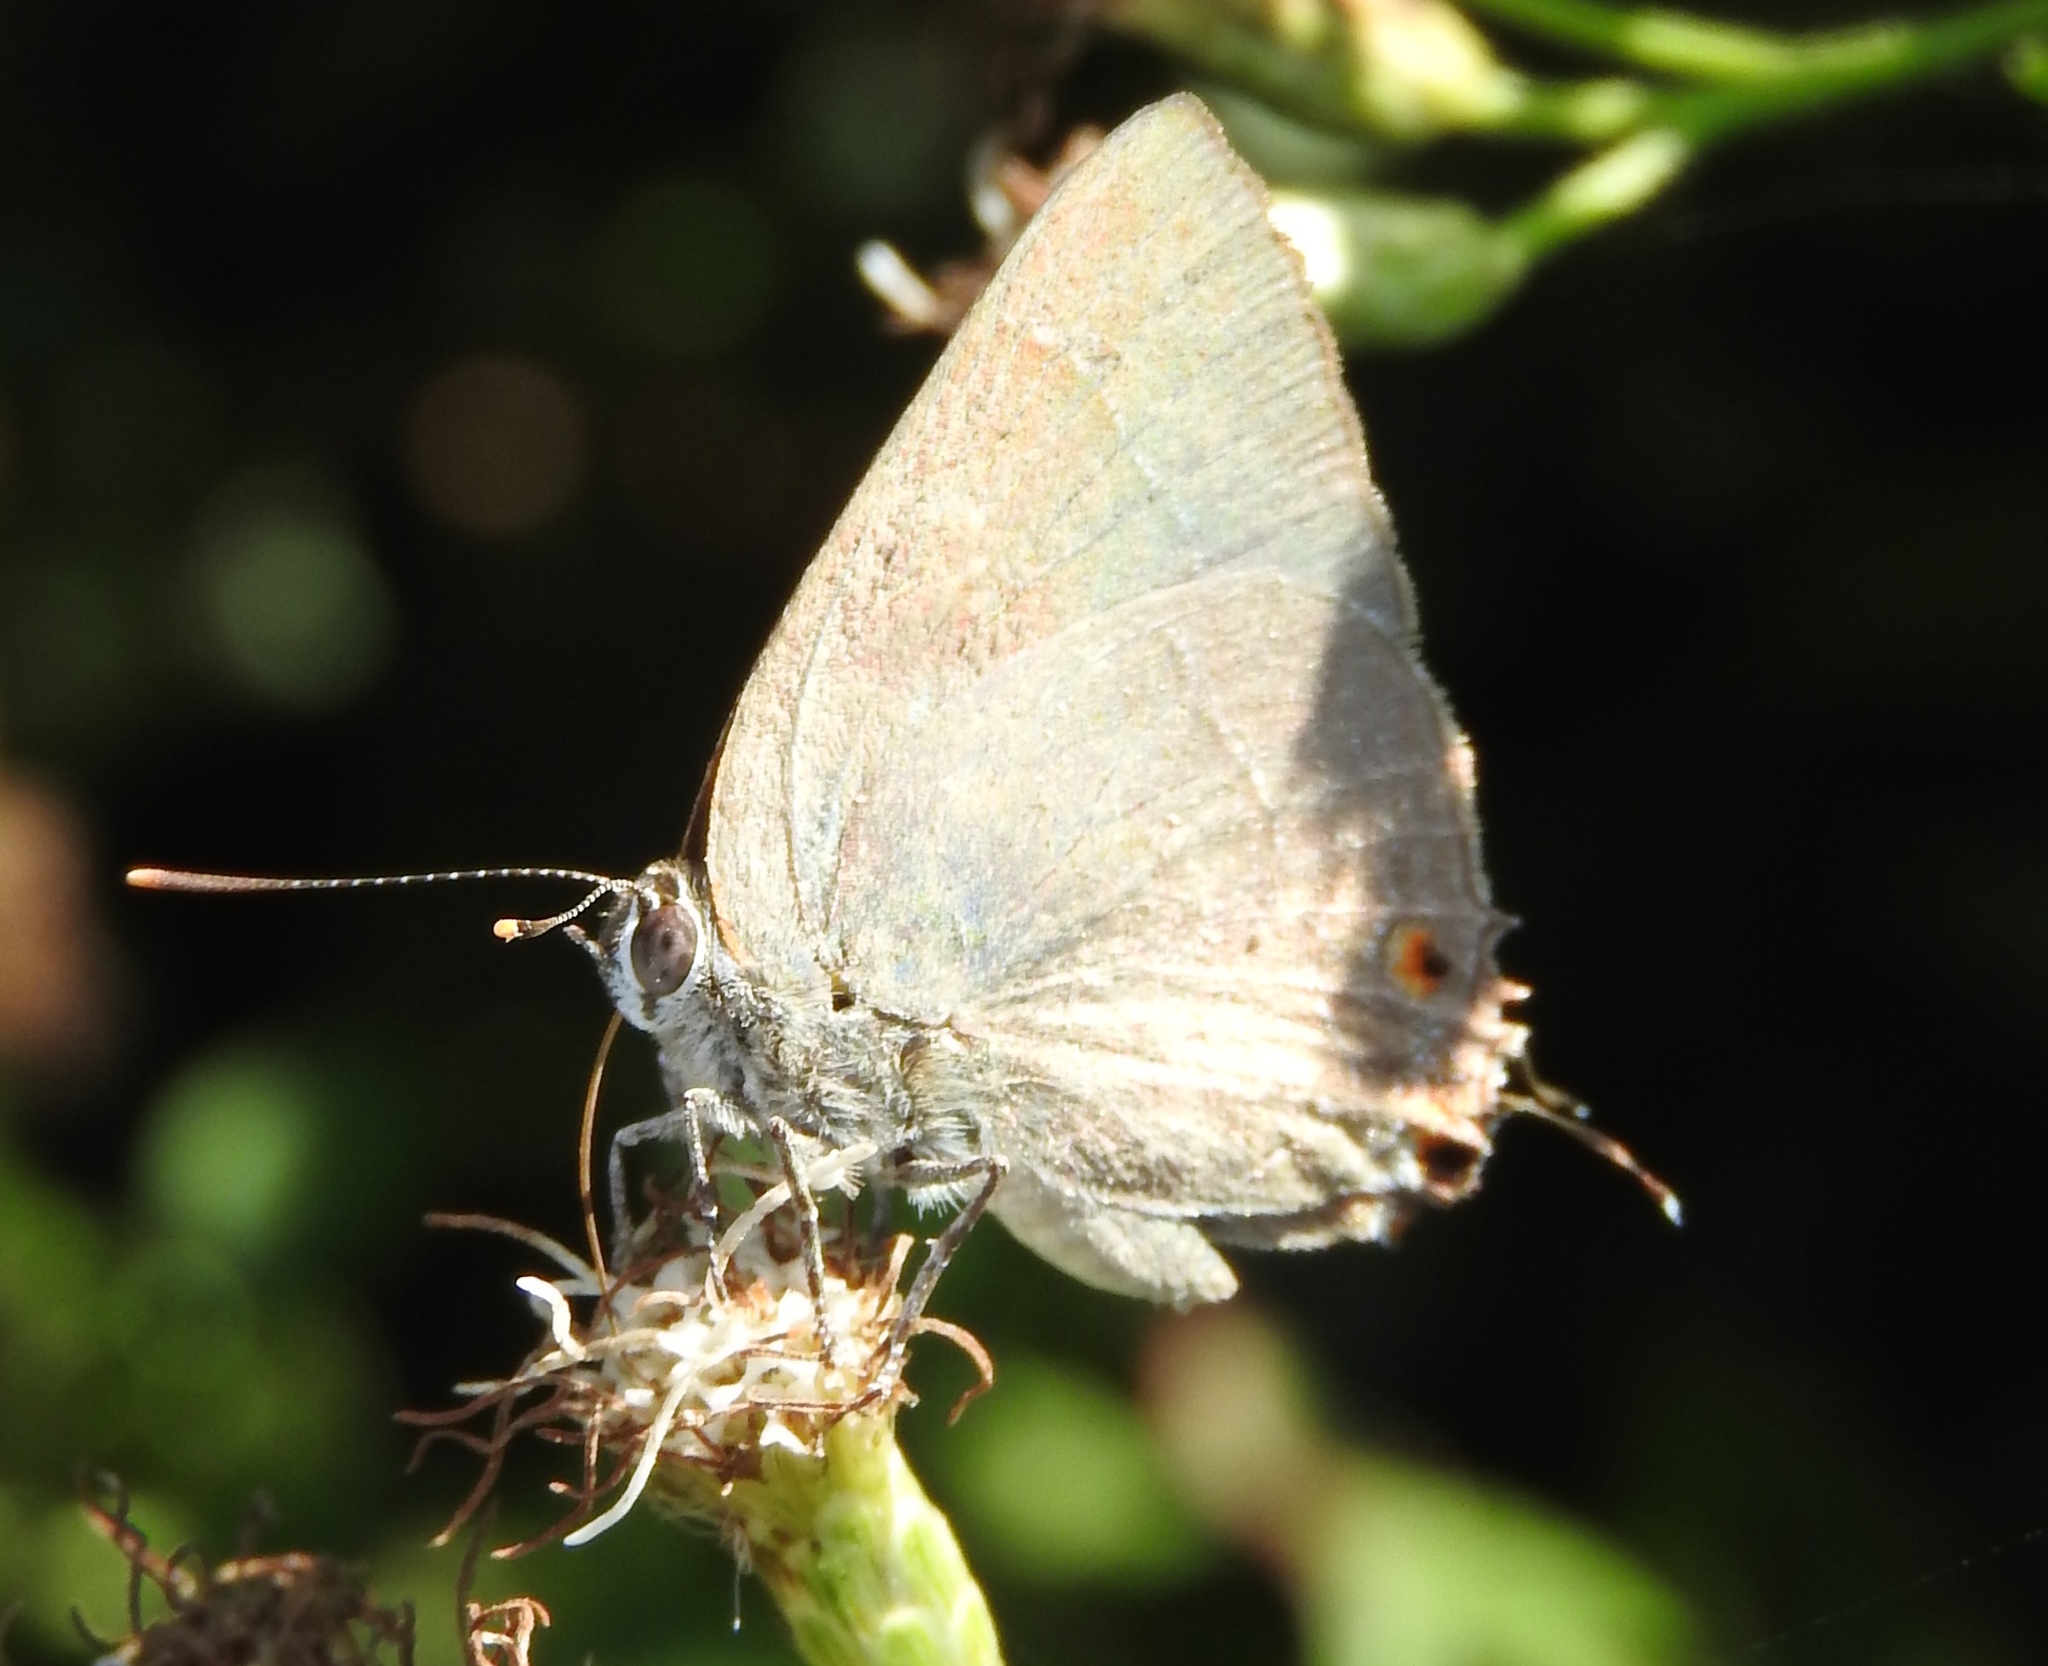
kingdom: Animalia
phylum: Arthropoda
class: Insecta
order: Lepidoptera
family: Lycaenidae
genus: Thecla
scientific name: Thecla marius
